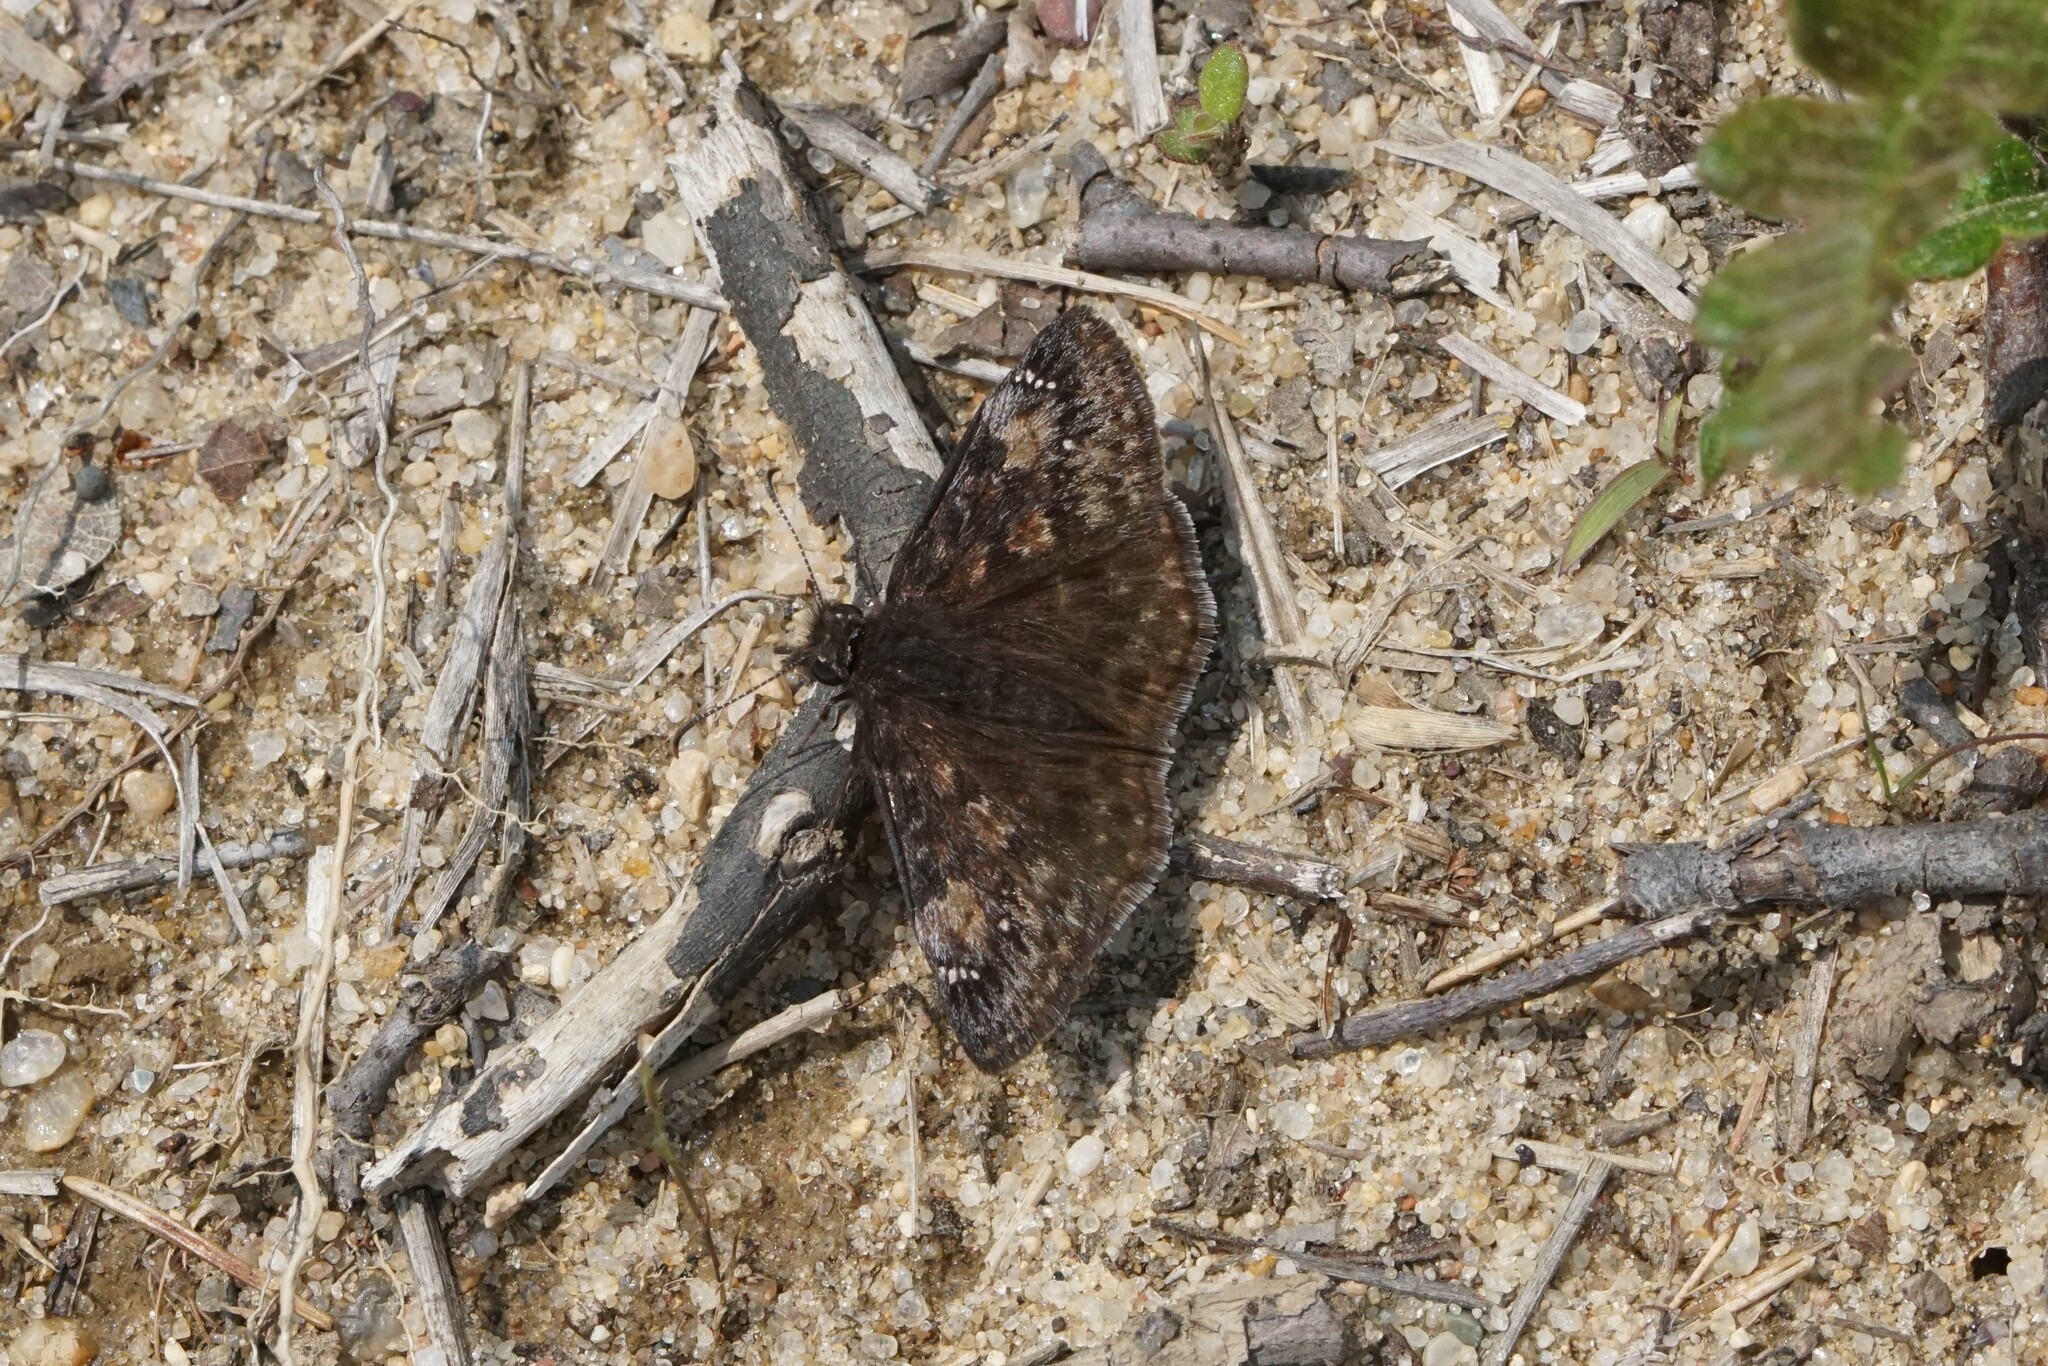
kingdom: Animalia
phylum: Arthropoda
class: Insecta
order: Lepidoptera
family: Hesperiidae
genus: Erynnis
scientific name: Erynnis baptisiae
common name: Wild indigo duskywing
